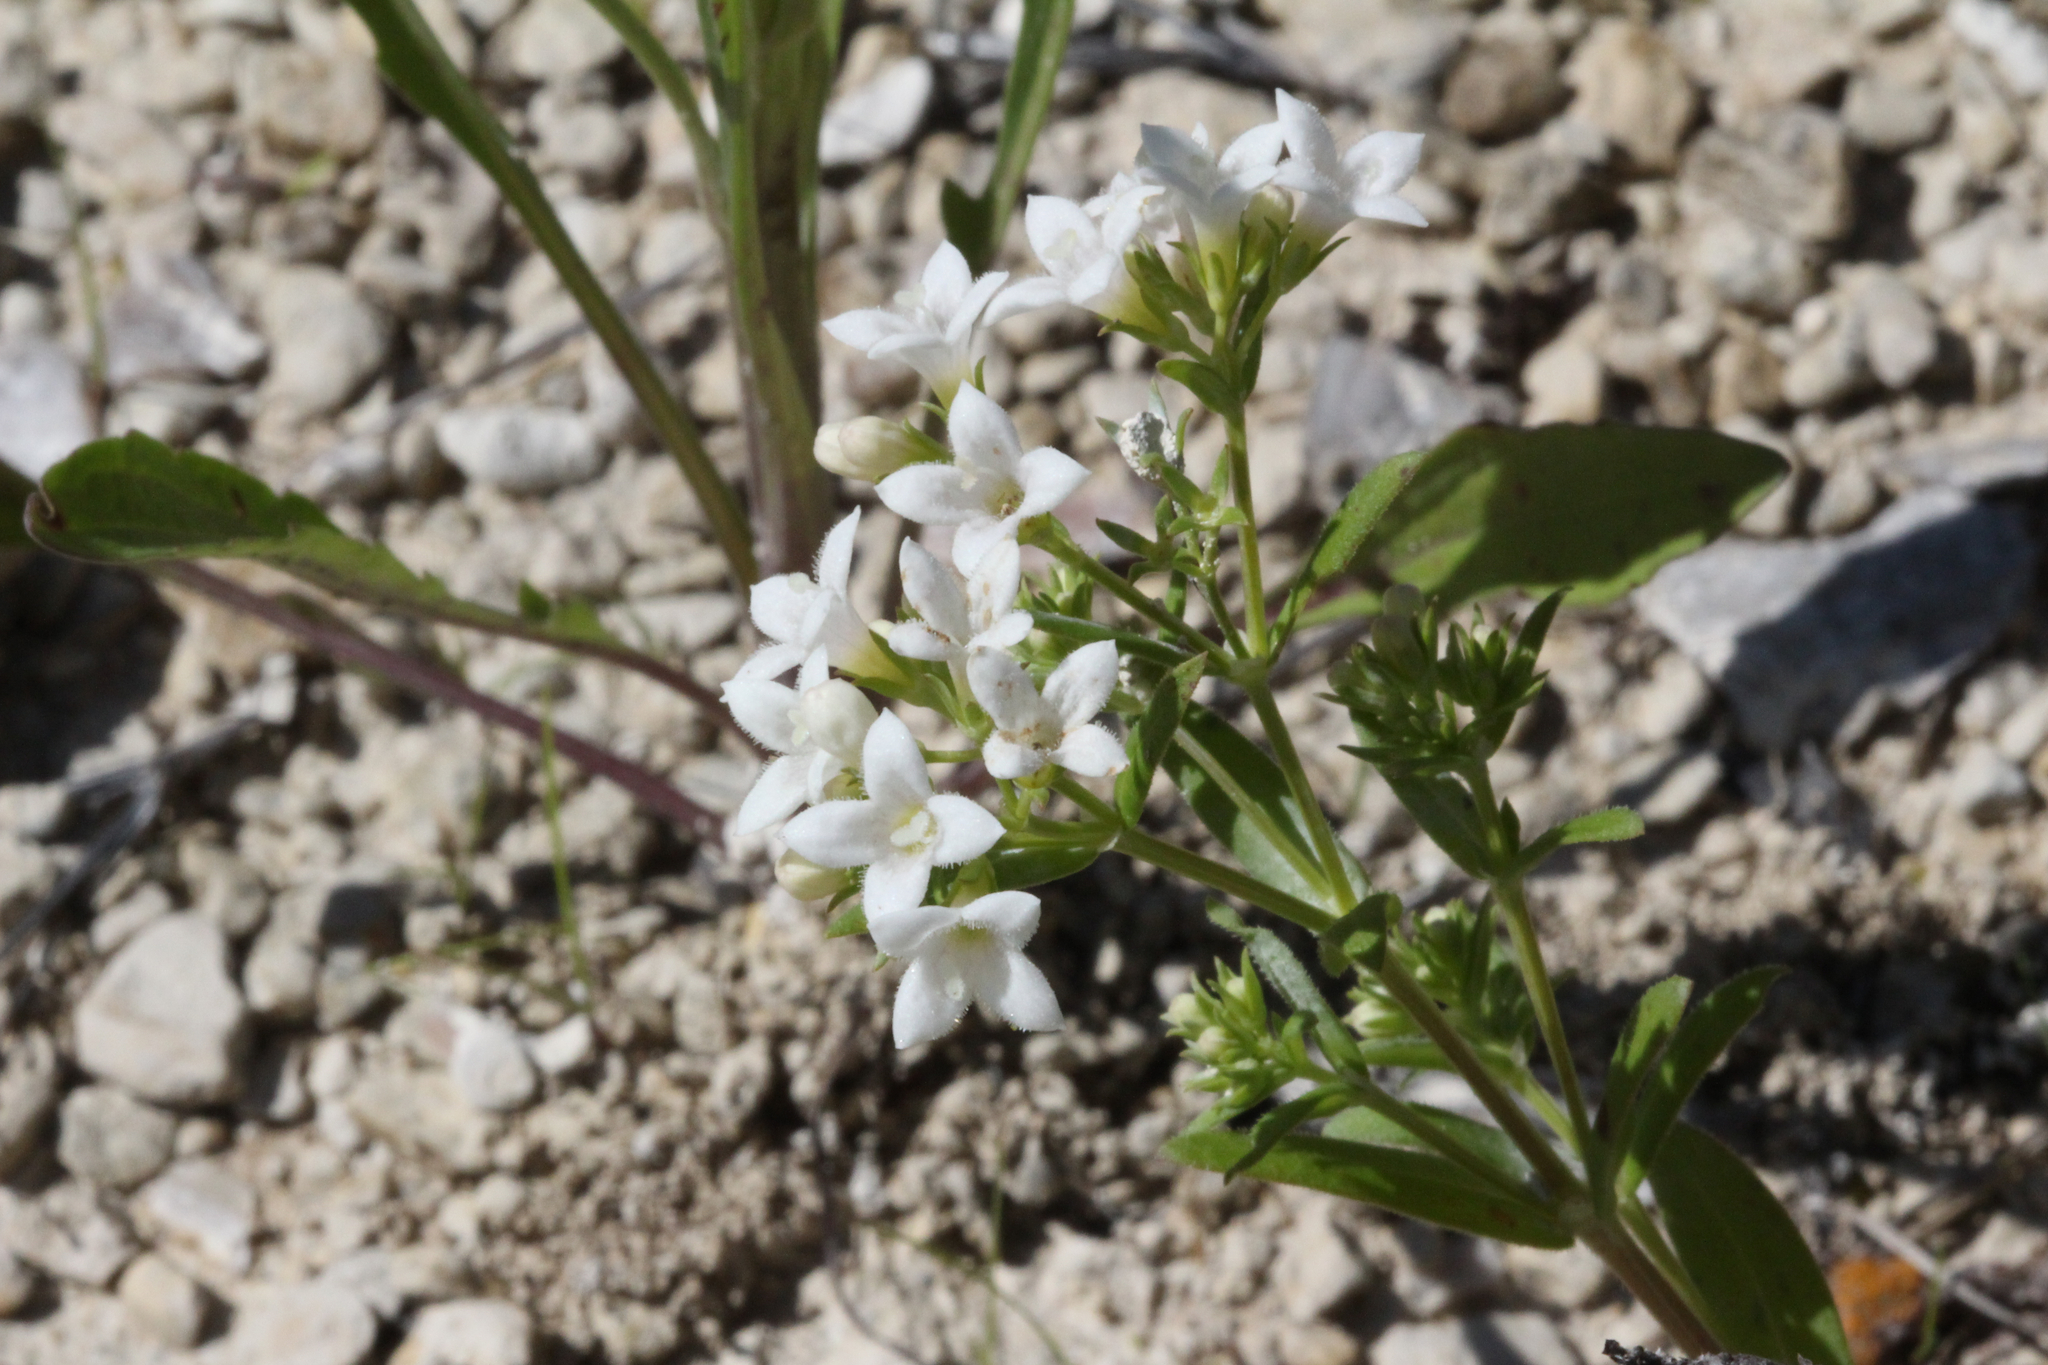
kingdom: Plantae
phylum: Tracheophyta
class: Magnoliopsida
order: Gentianales
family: Rubiaceae
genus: Houstonia
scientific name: Houstonia purpurea
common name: Summer bluet
